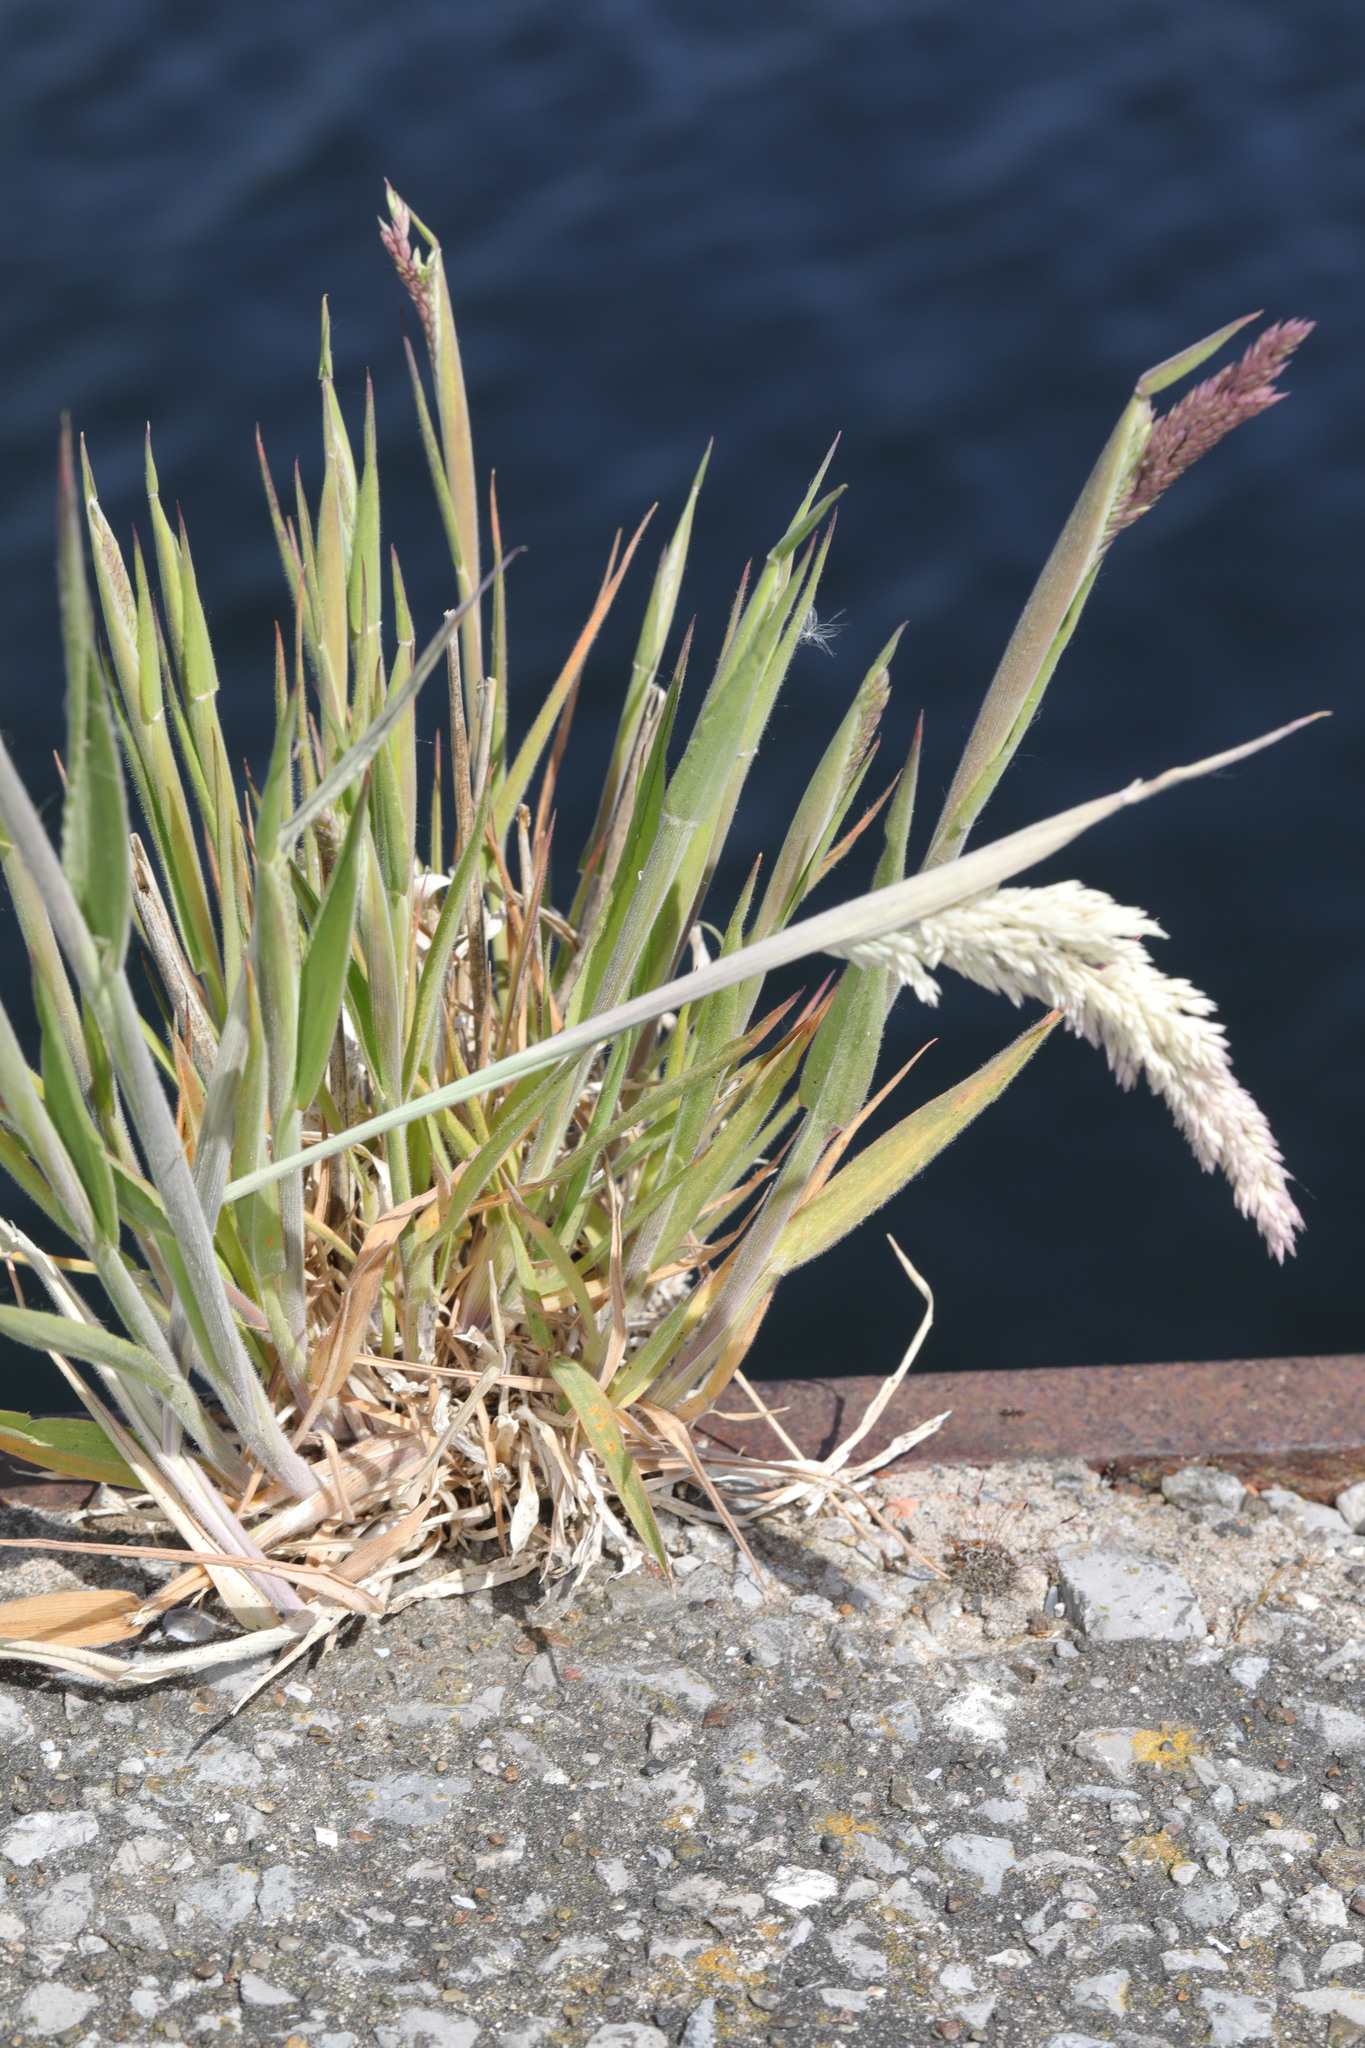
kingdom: Plantae
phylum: Tracheophyta
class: Liliopsida
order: Poales
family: Poaceae
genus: Holcus
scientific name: Holcus lanatus
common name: Yorkshire-fog
